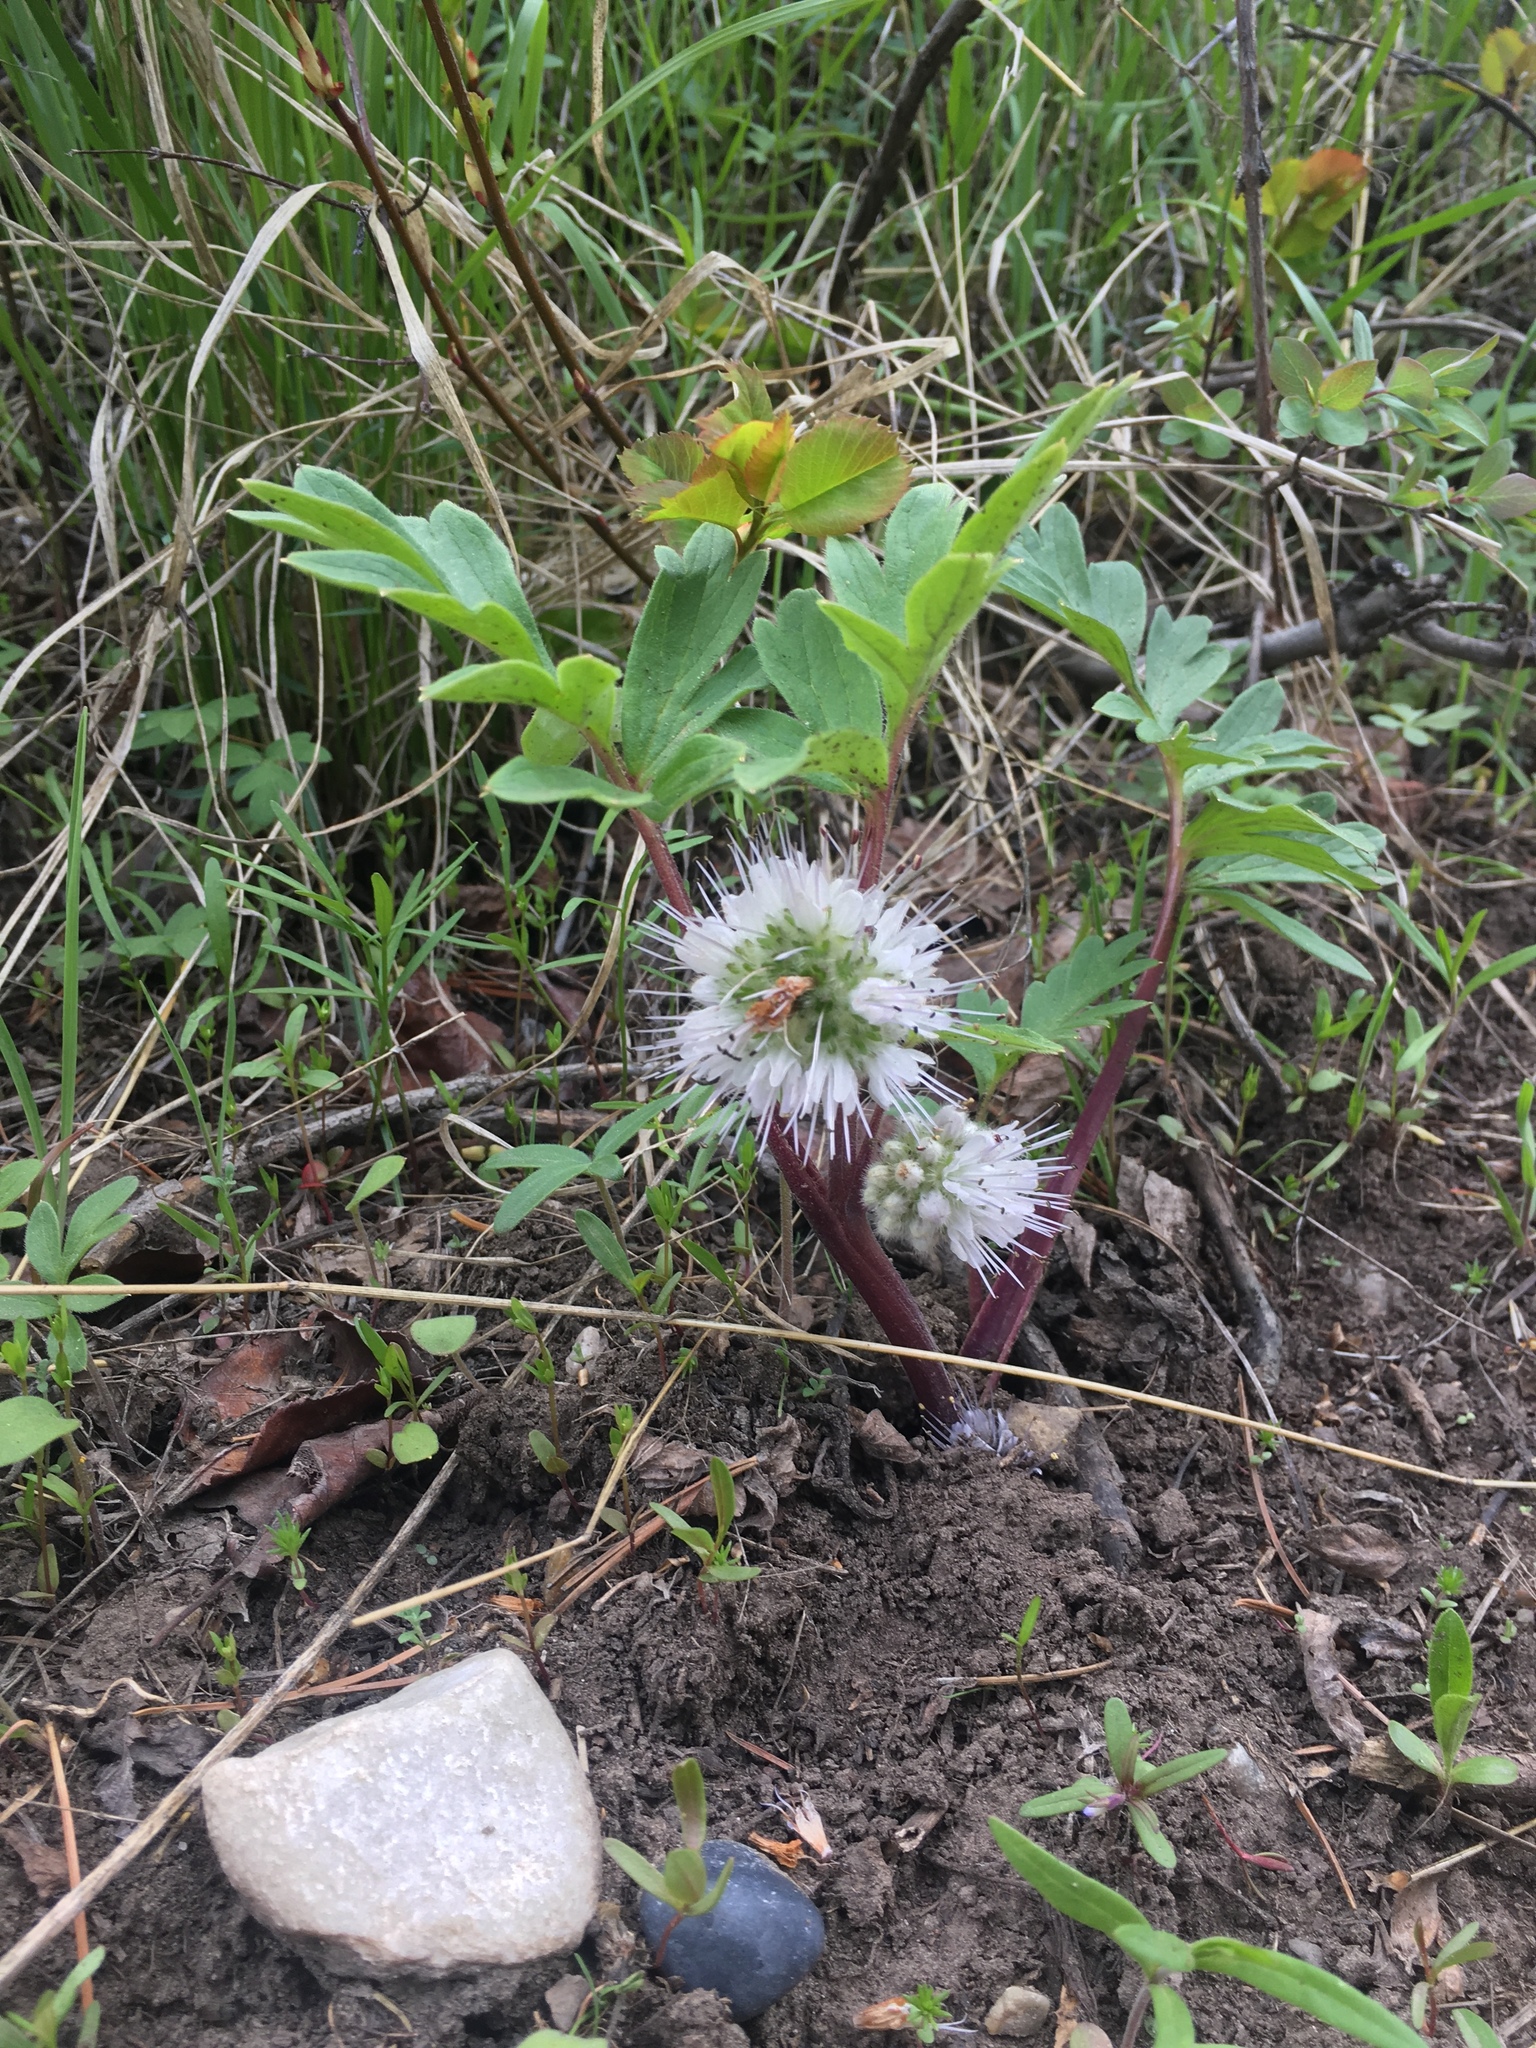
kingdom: Plantae
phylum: Tracheophyta
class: Magnoliopsida
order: Boraginales
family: Hydrophyllaceae
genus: Hydrophyllum
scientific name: Hydrophyllum capitatum
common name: Woollen-breeches
